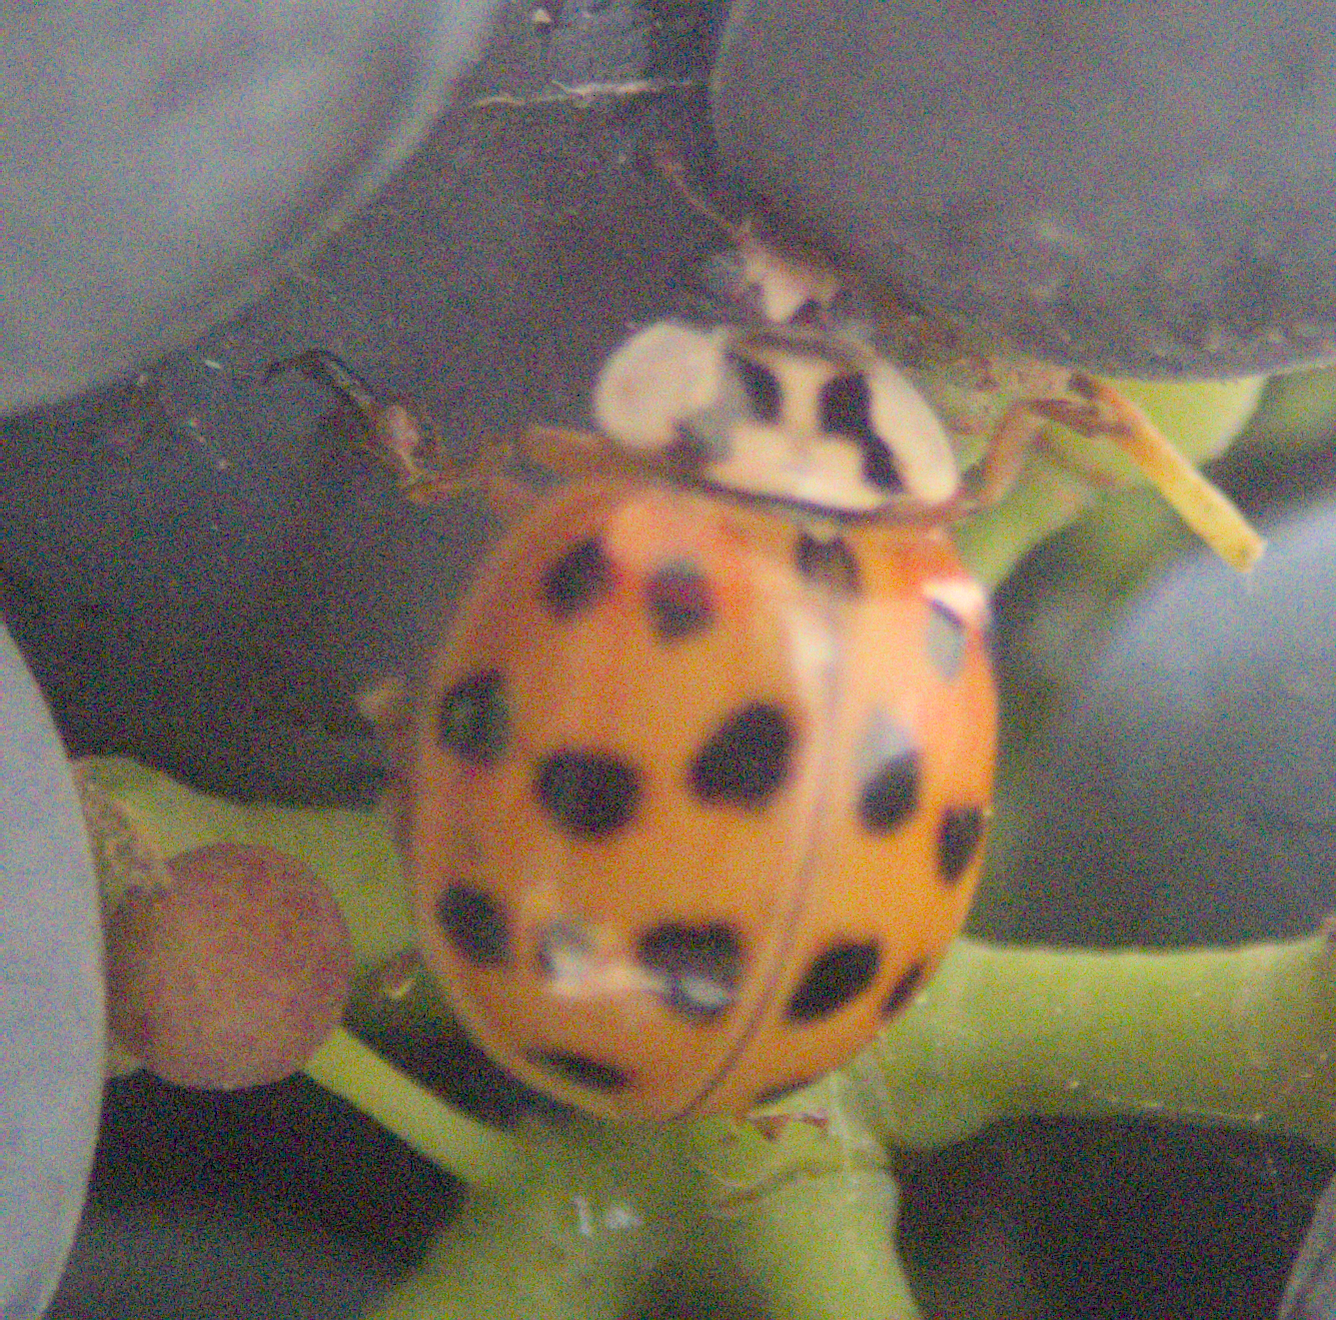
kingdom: Animalia
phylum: Arthropoda
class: Insecta
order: Coleoptera
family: Coccinellidae
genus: Harmonia
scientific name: Harmonia axyridis
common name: Harlequin ladybird
